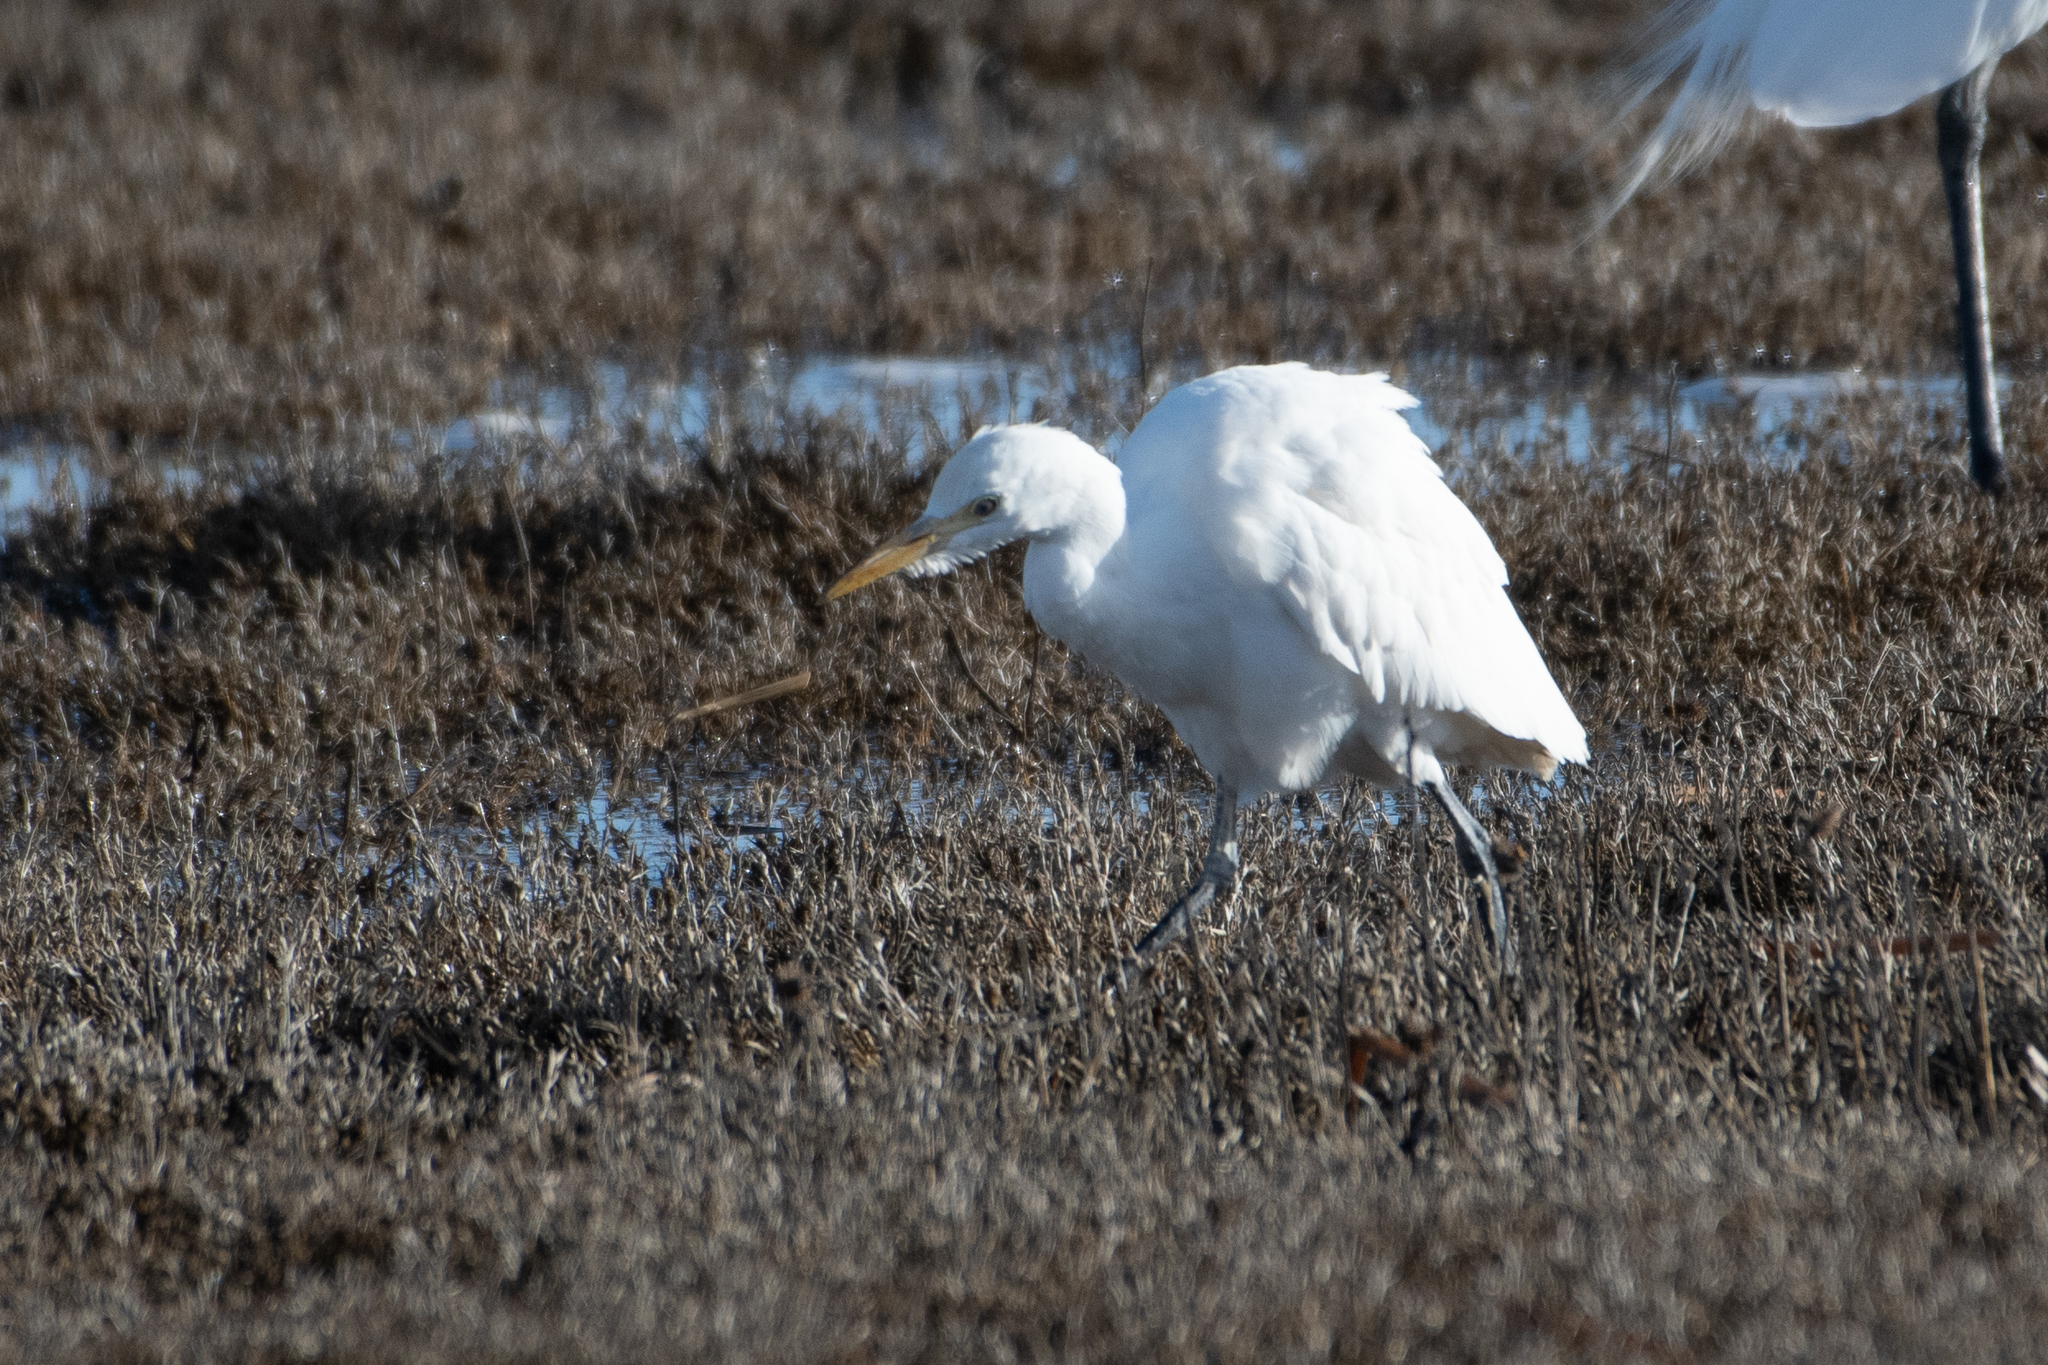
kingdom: Animalia
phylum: Chordata
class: Aves
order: Pelecaniformes
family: Ardeidae
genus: Bubulcus
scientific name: Bubulcus ibis
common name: Cattle egret
